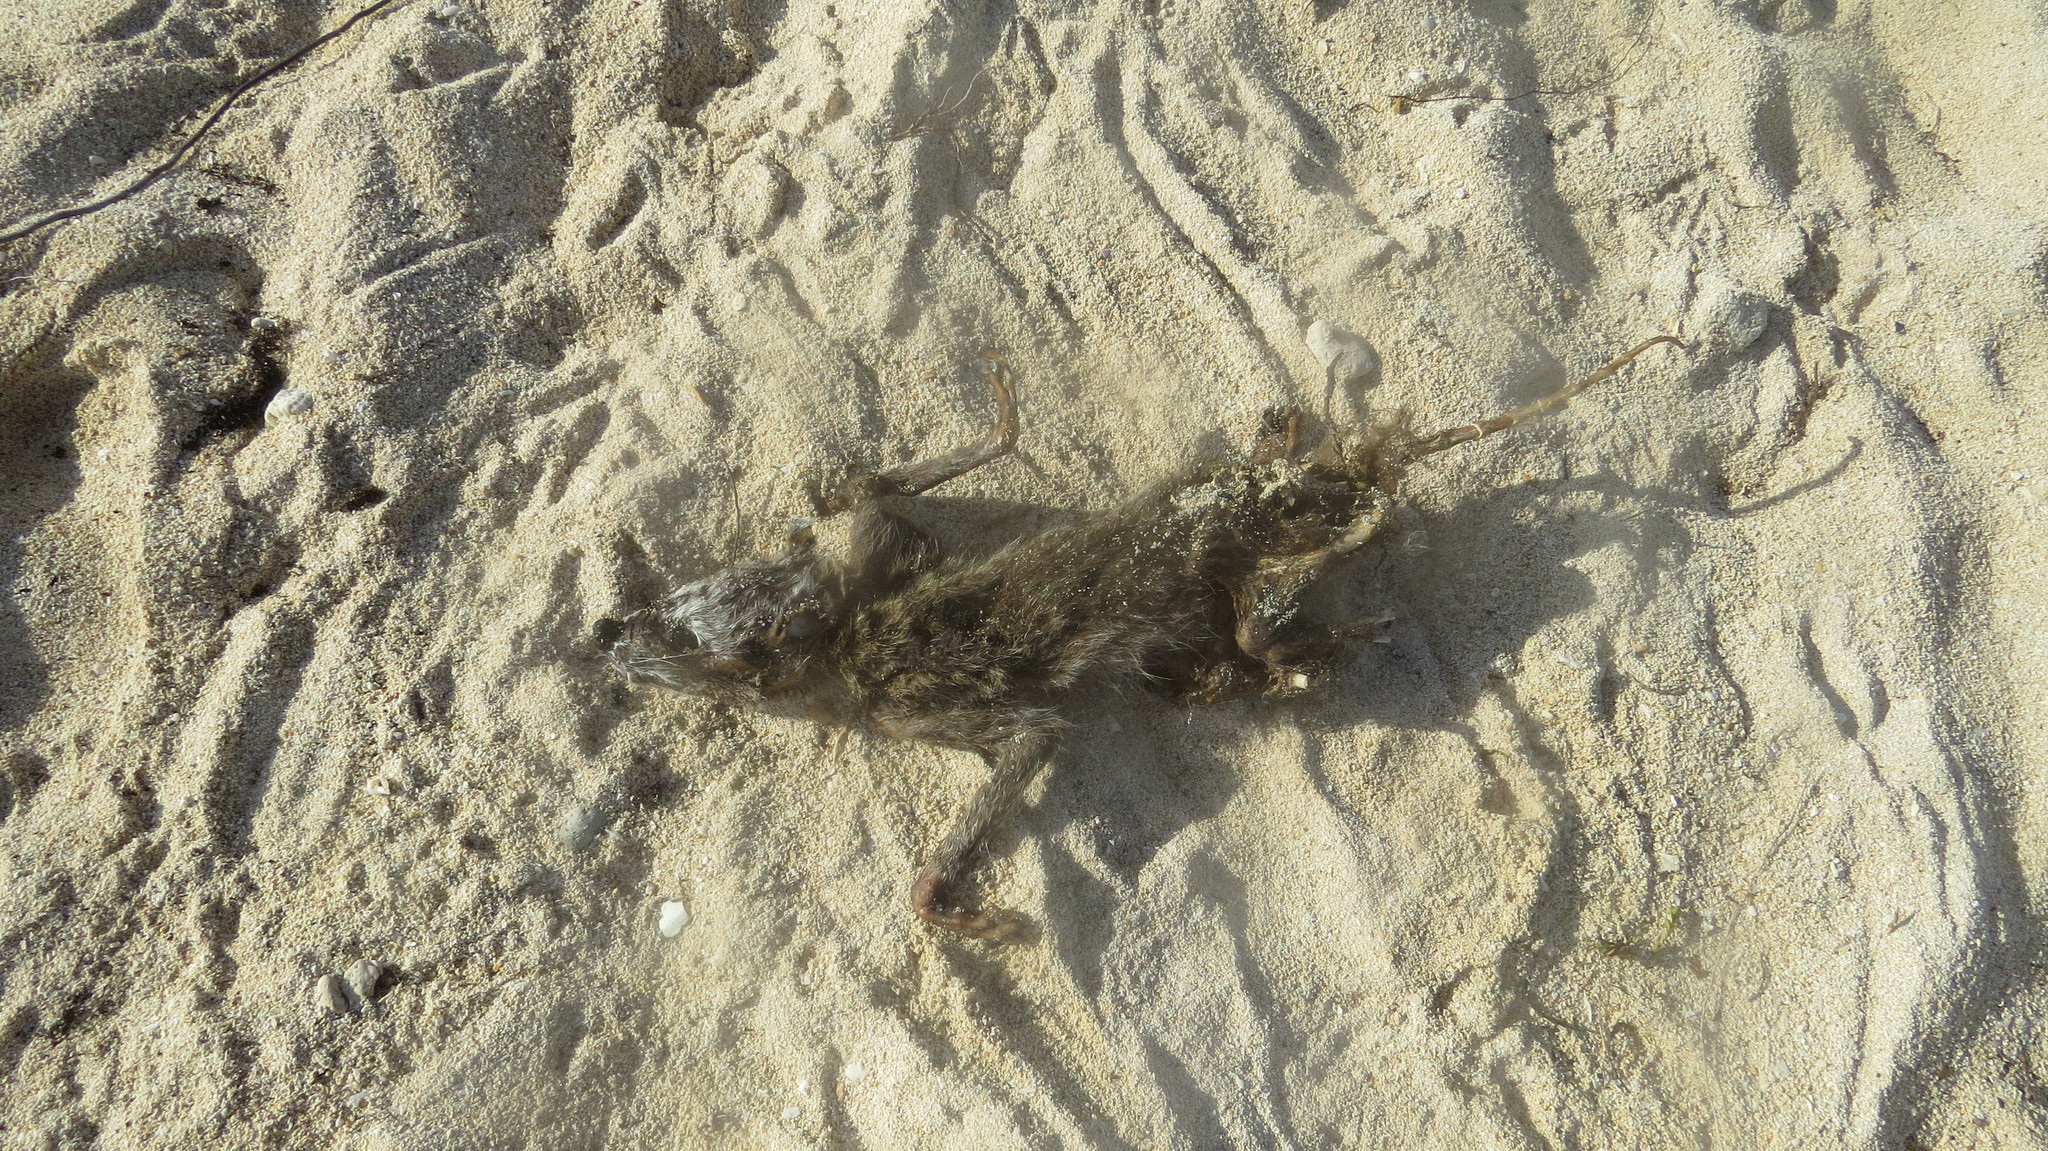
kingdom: Animalia
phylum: Chordata
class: Mammalia
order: Carnivora
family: Procyonidae
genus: Procyon
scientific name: Procyon pygmaeus
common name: Cozumel raccoon
